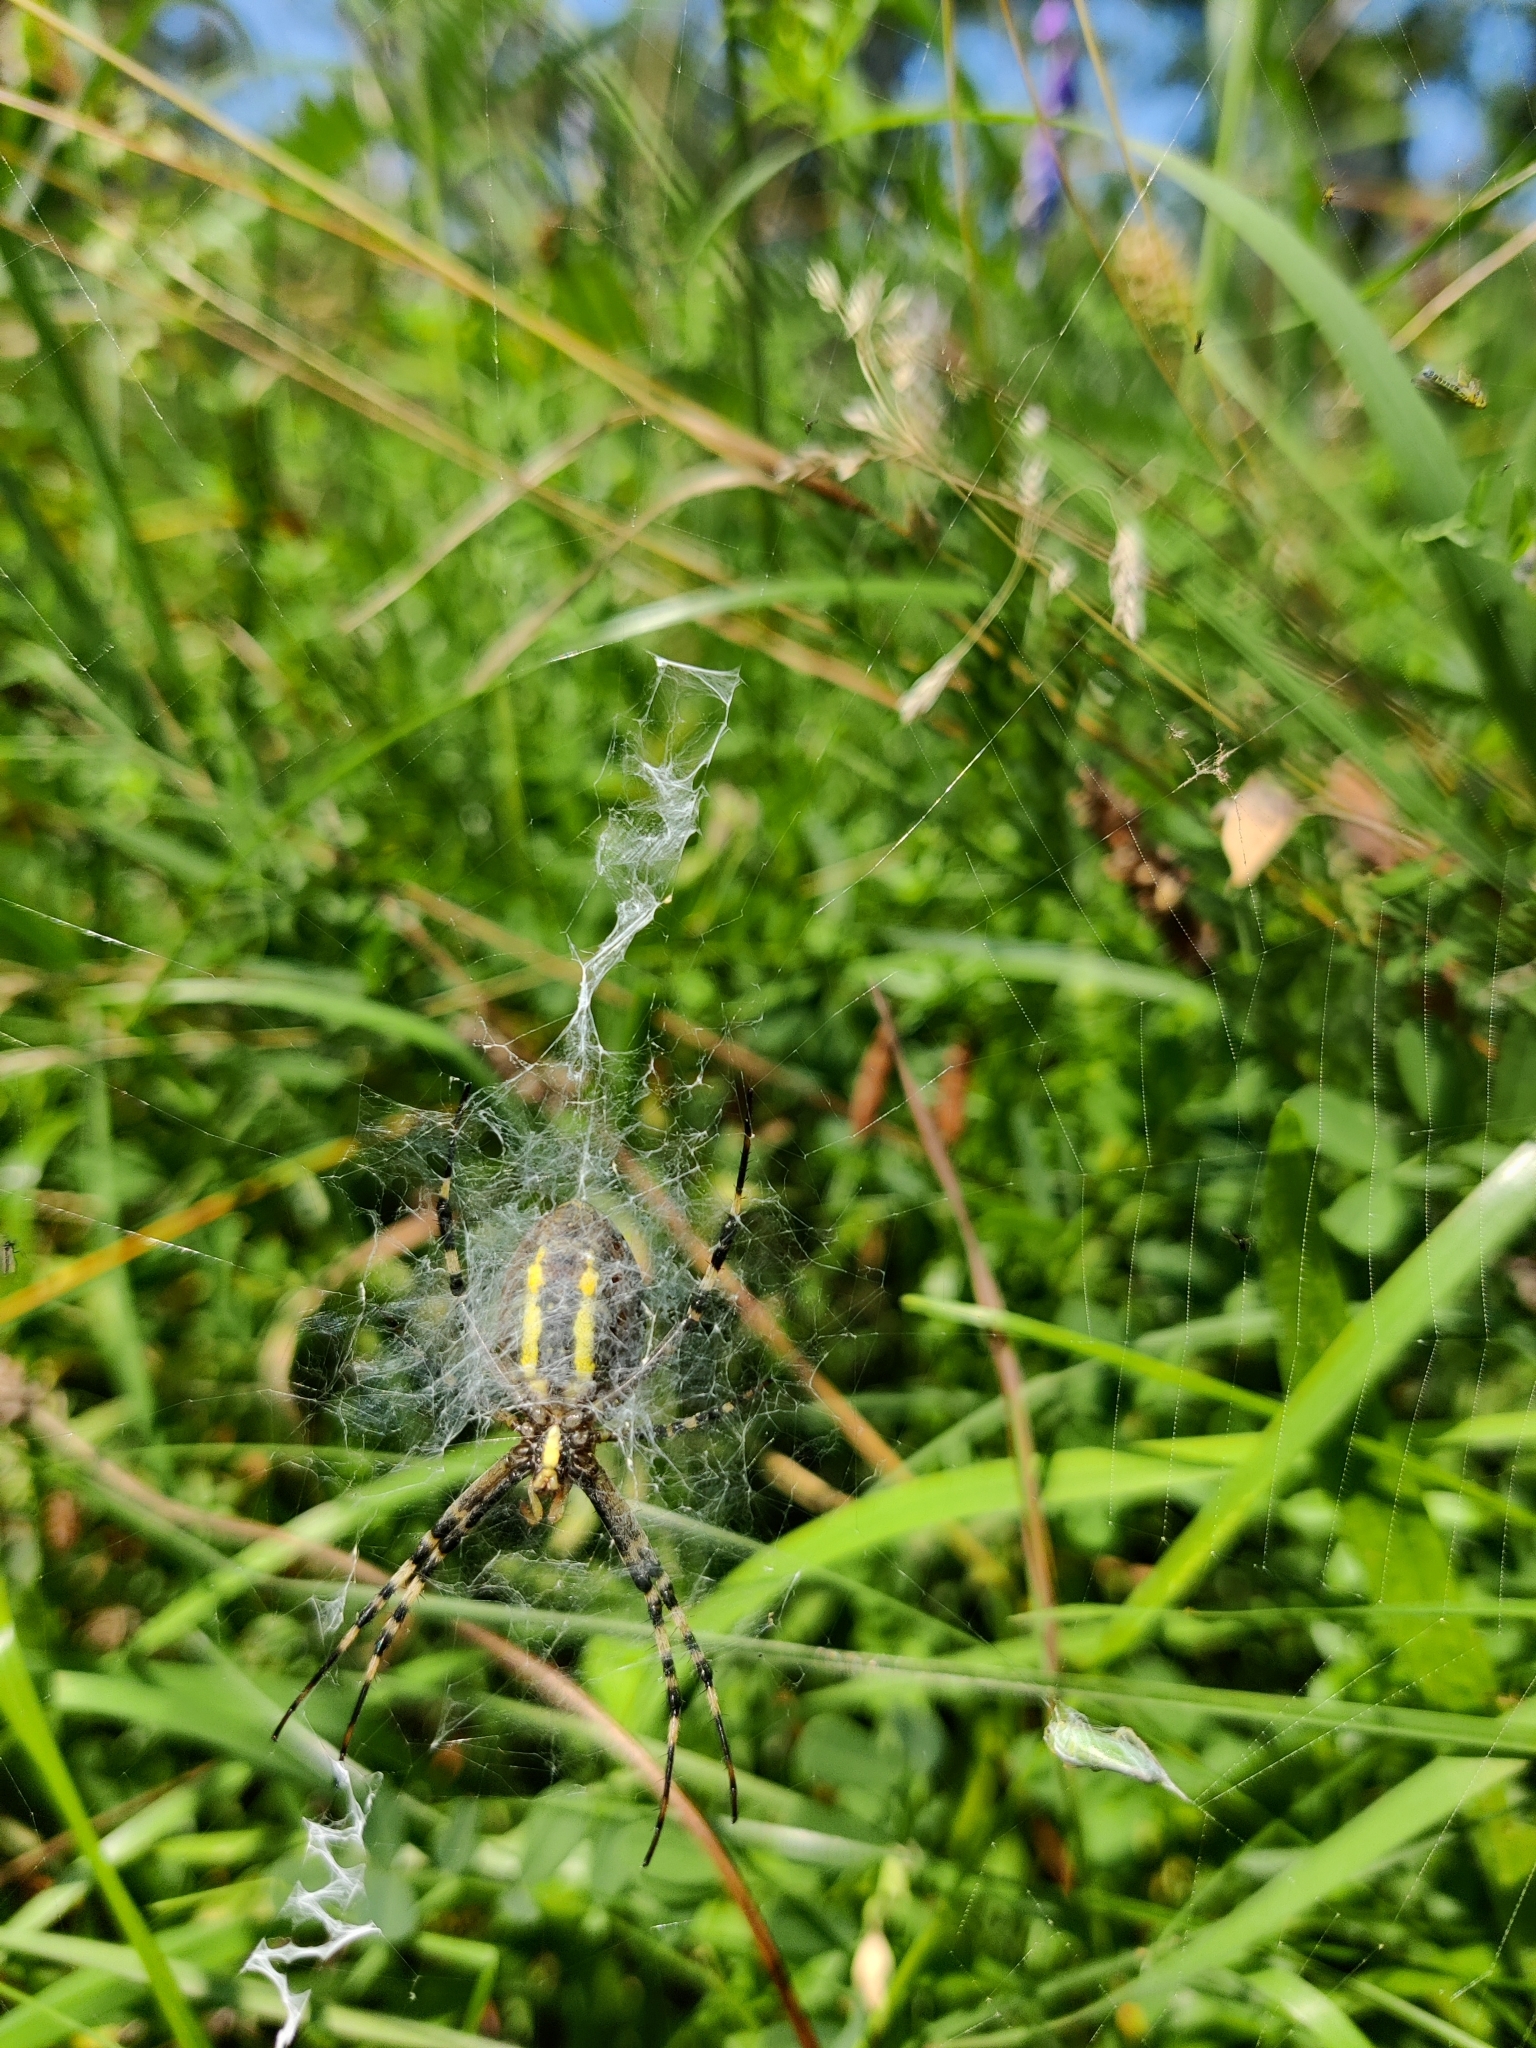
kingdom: Animalia
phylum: Arthropoda
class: Arachnida
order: Araneae
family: Araneidae
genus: Argiope
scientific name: Argiope bruennichi
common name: Wasp spider
